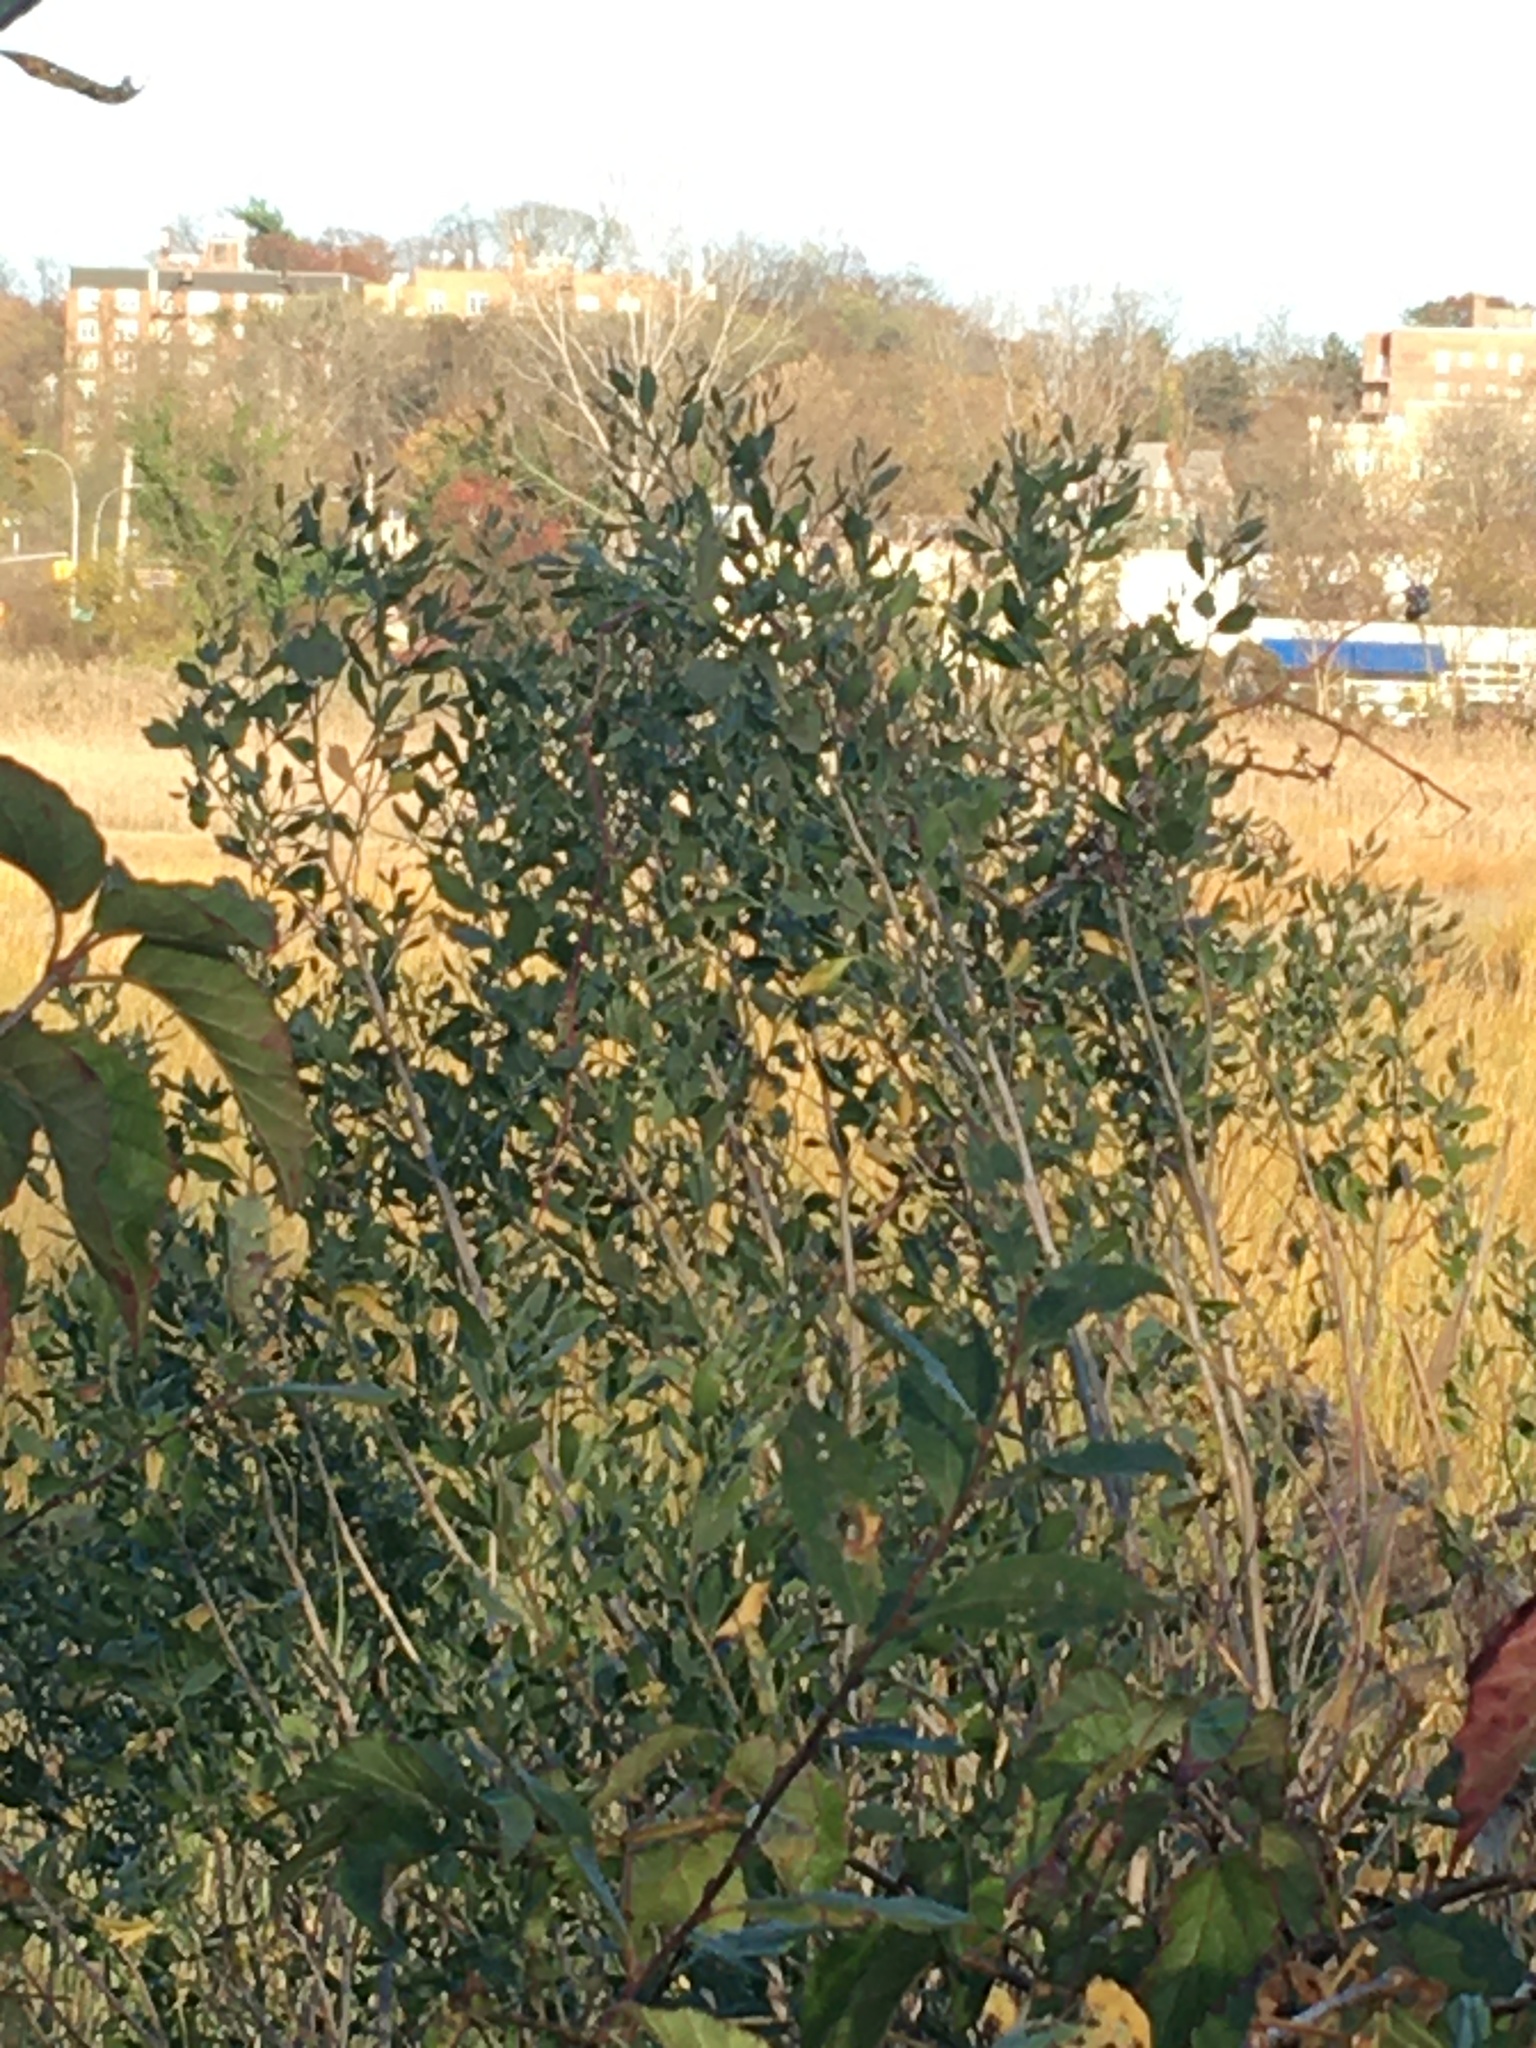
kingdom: Plantae
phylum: Tracheophyta
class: Magnoliopsida
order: Asterales
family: Asteraceae
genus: Baccharis
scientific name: Baccharis halimifolia
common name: Eastern baccharis
